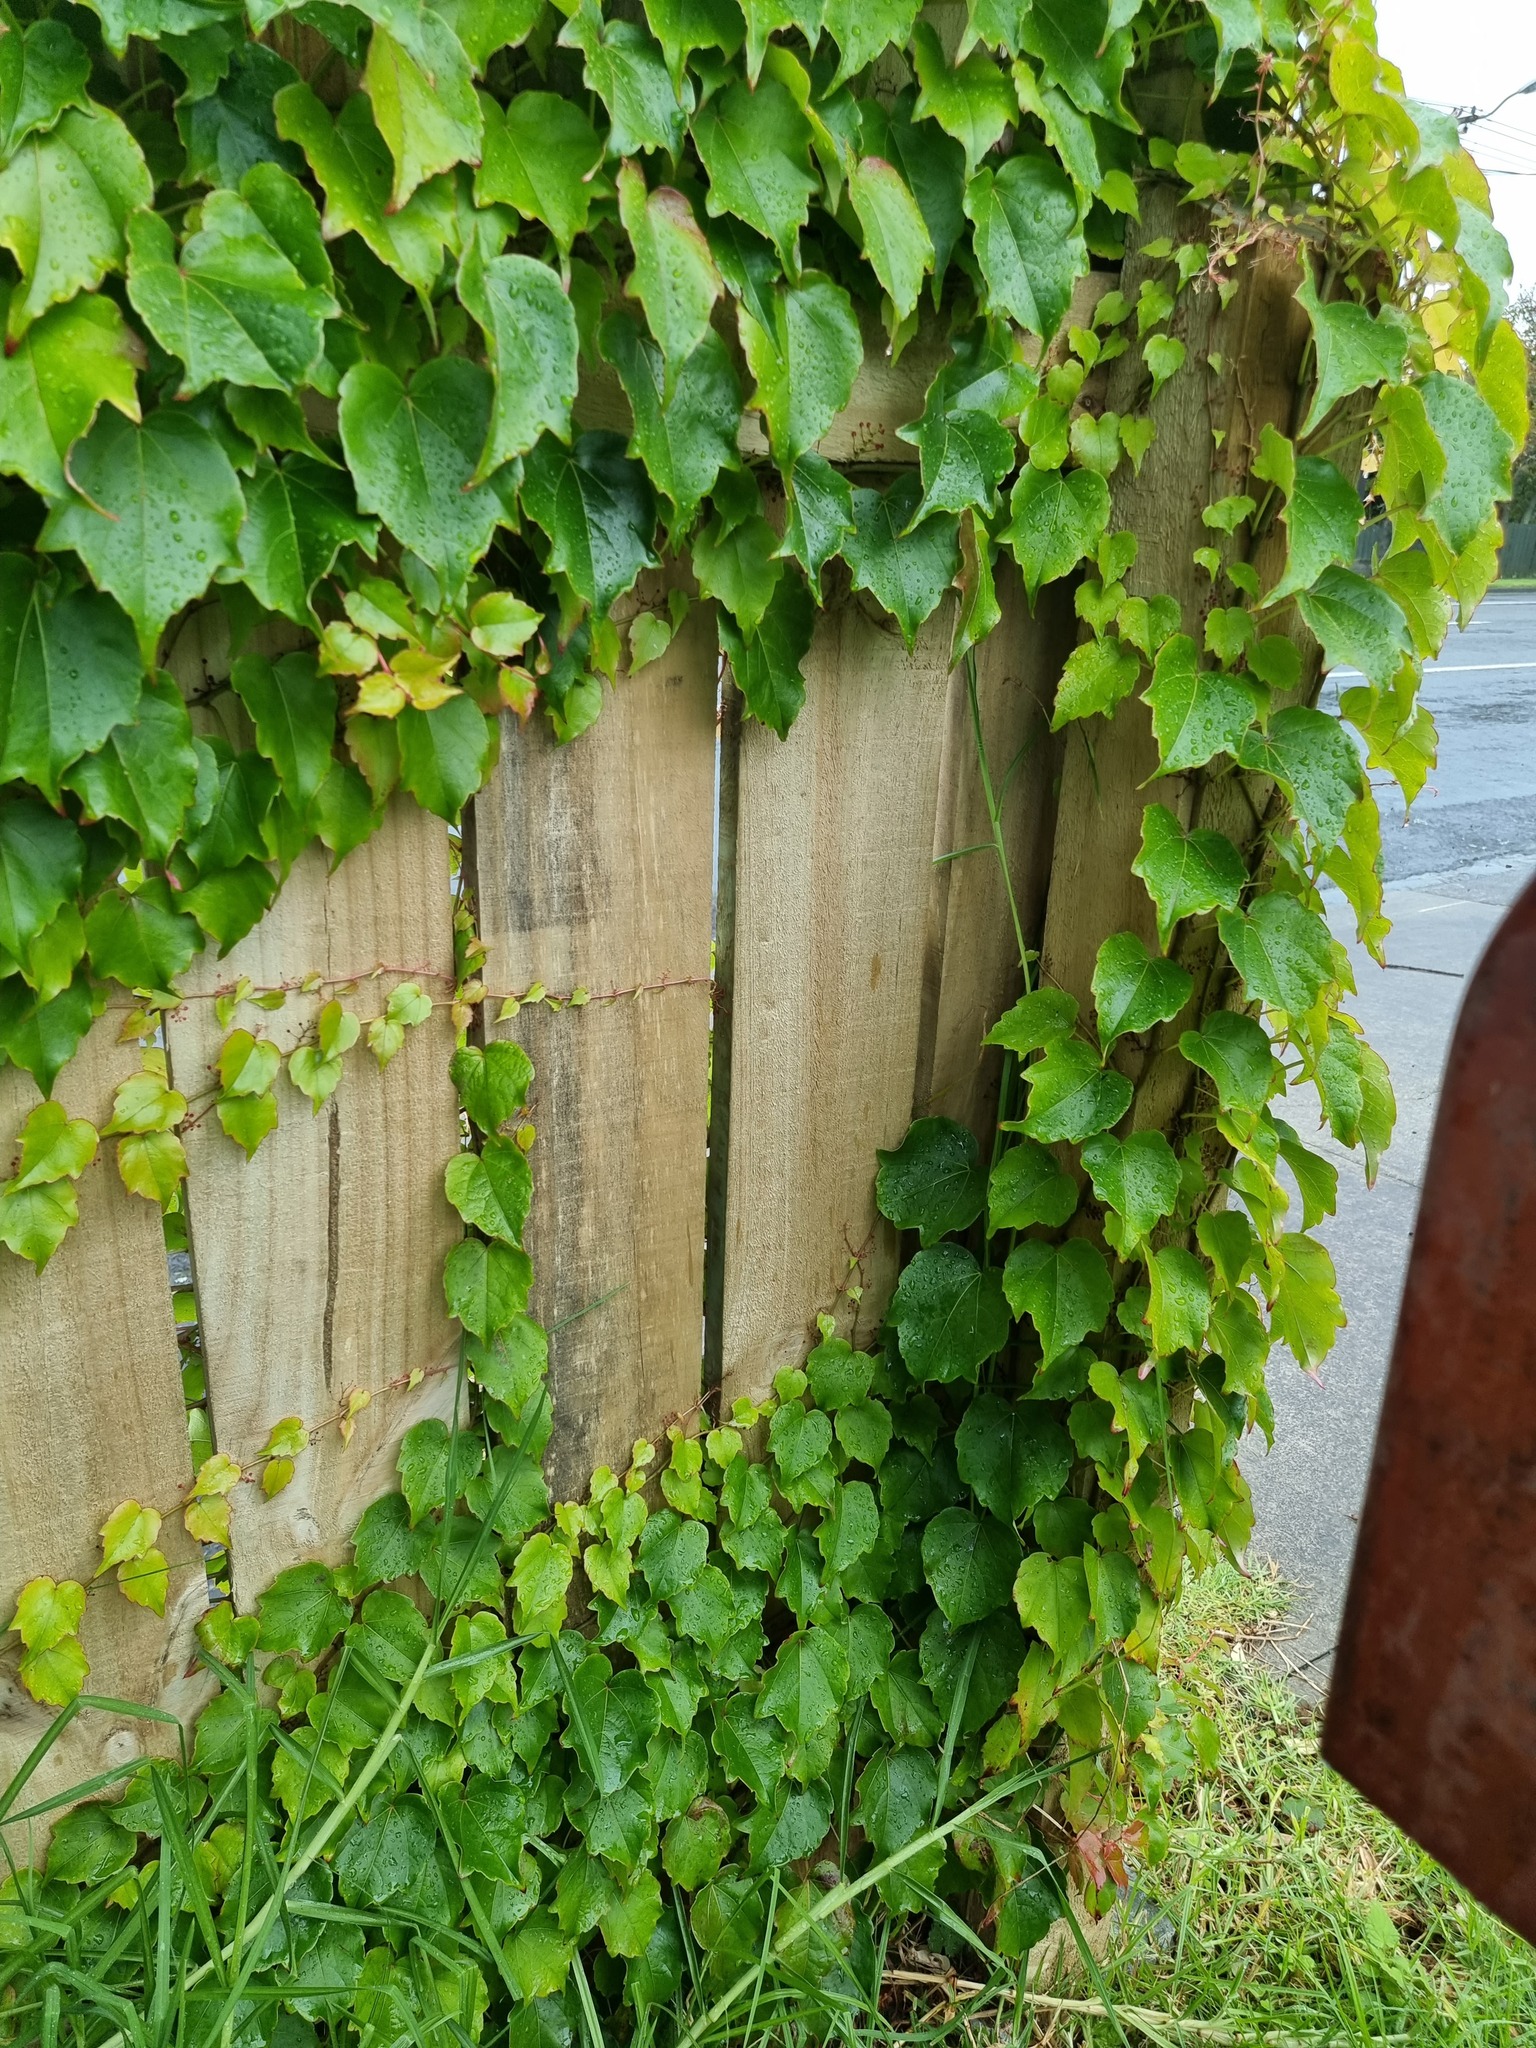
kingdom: Plantae
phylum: Tracheophyta
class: Magnoliopsida
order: Vitales
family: Vitaceae
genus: Parthenocissus
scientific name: Parthenocissus tricuspidata
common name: Boston ivy
